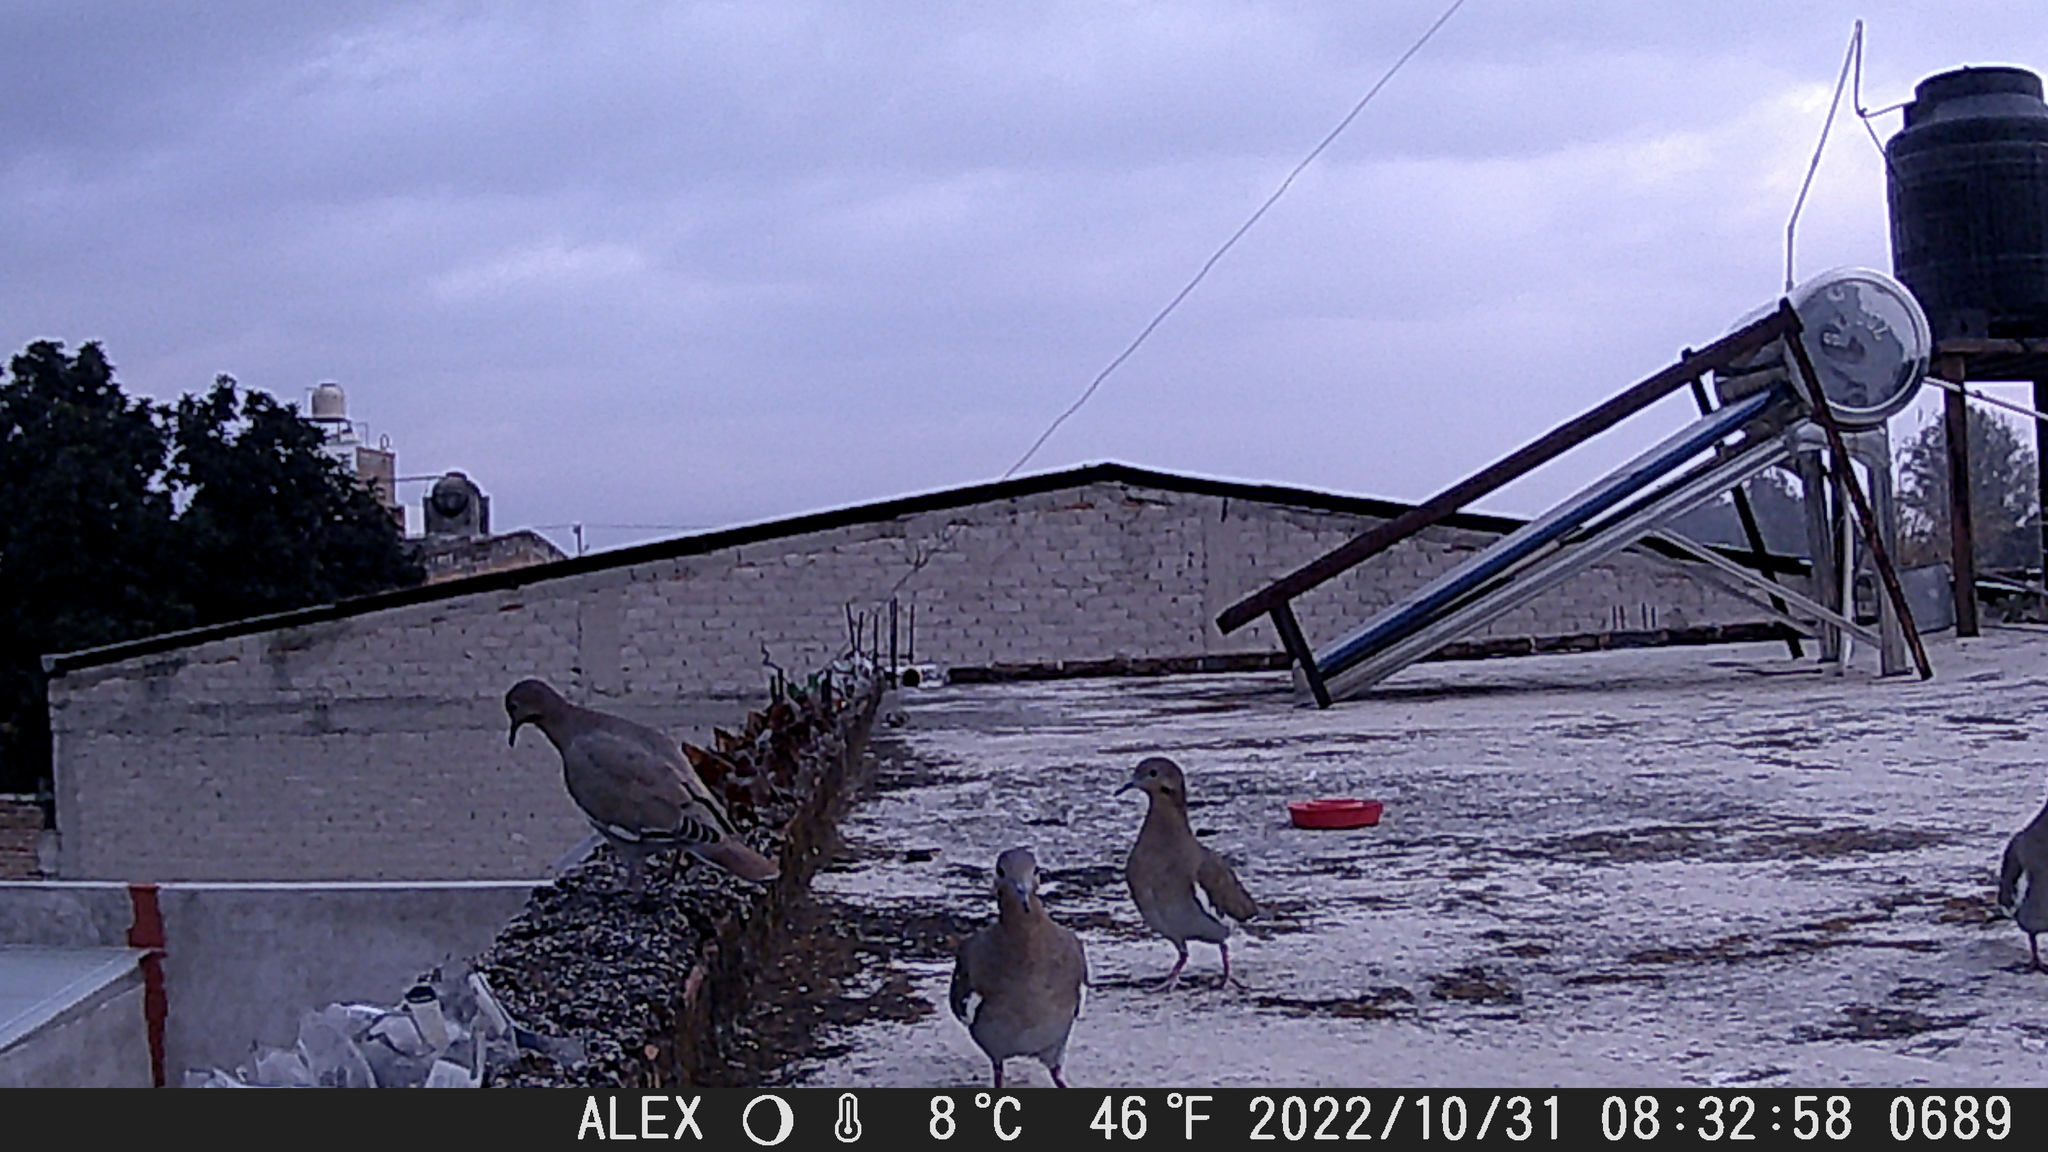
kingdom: Animalia
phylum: Chordata
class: Aves
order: Columbiformes
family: Columbidae
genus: Zenaida
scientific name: Zenaida asiatica
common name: White-winged dove
